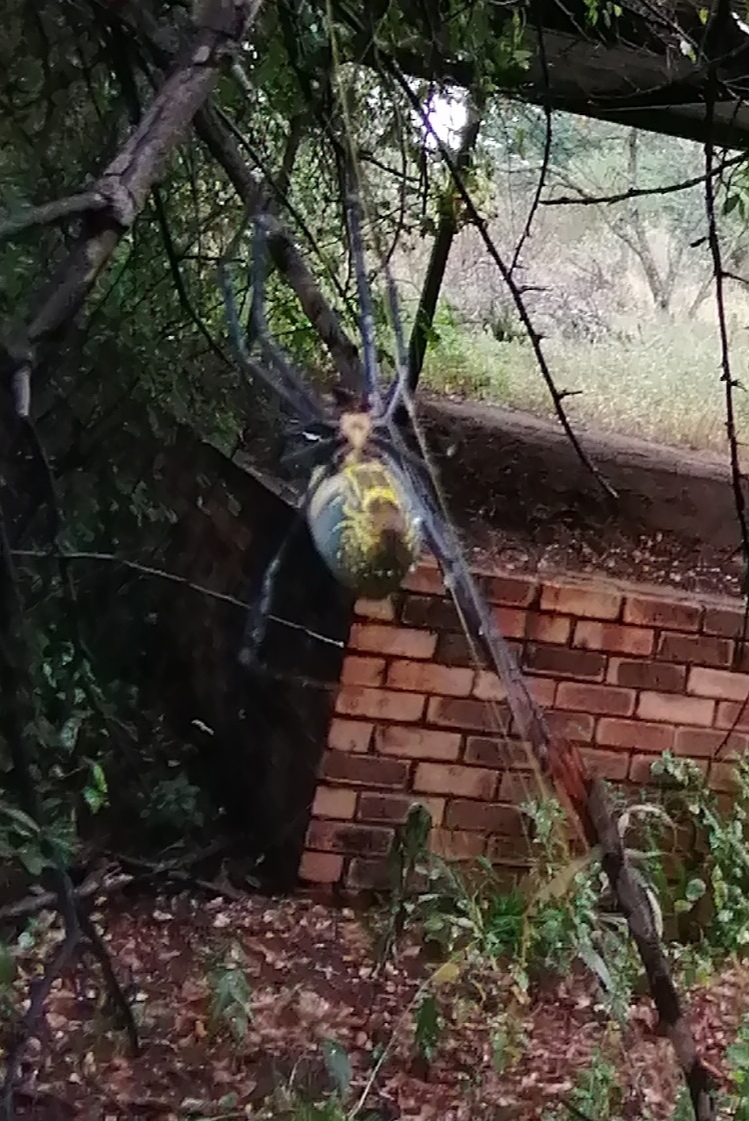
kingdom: Animalia
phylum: Arthropoda
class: Arachnida
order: Araneae
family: Araneidae
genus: Trichonephila
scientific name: Trichonephila fenestrata
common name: Hairy golden orb weaver
